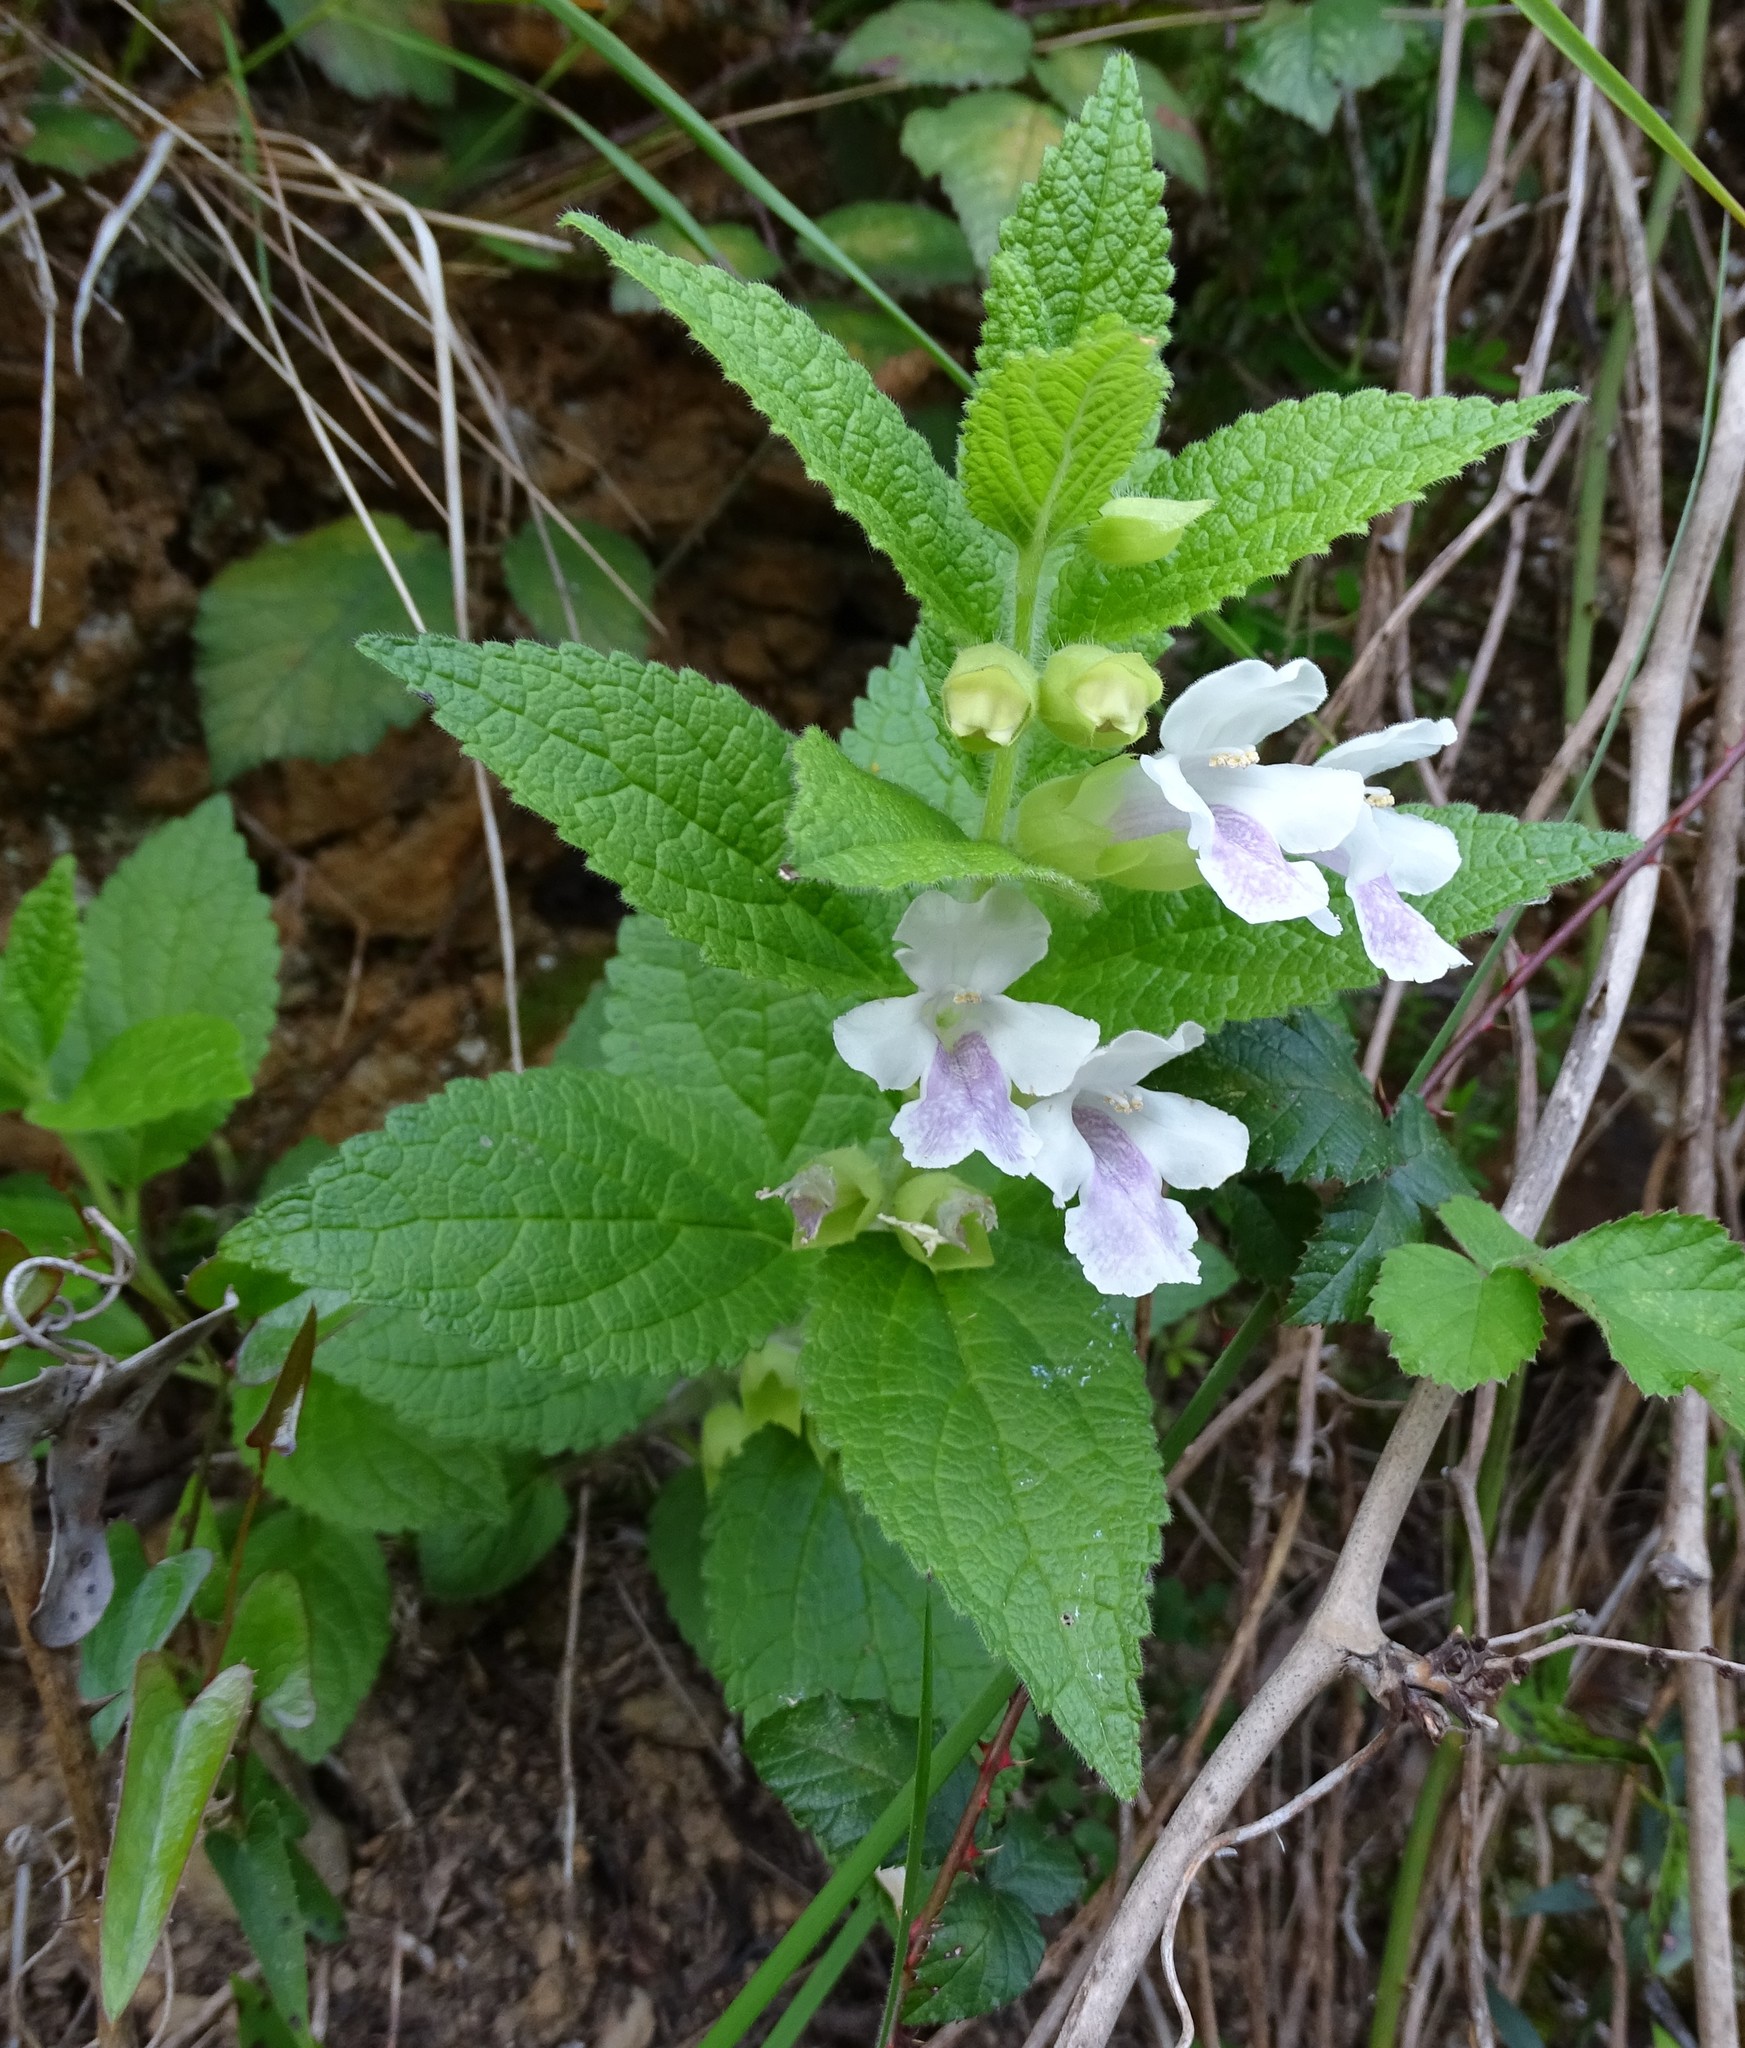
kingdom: Plantae
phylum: Tracheophyta
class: Magnoliopsida
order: Lamiales
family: Lamiaceae
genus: Melittis
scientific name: Melittis melissophyllum
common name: Bastard balm
